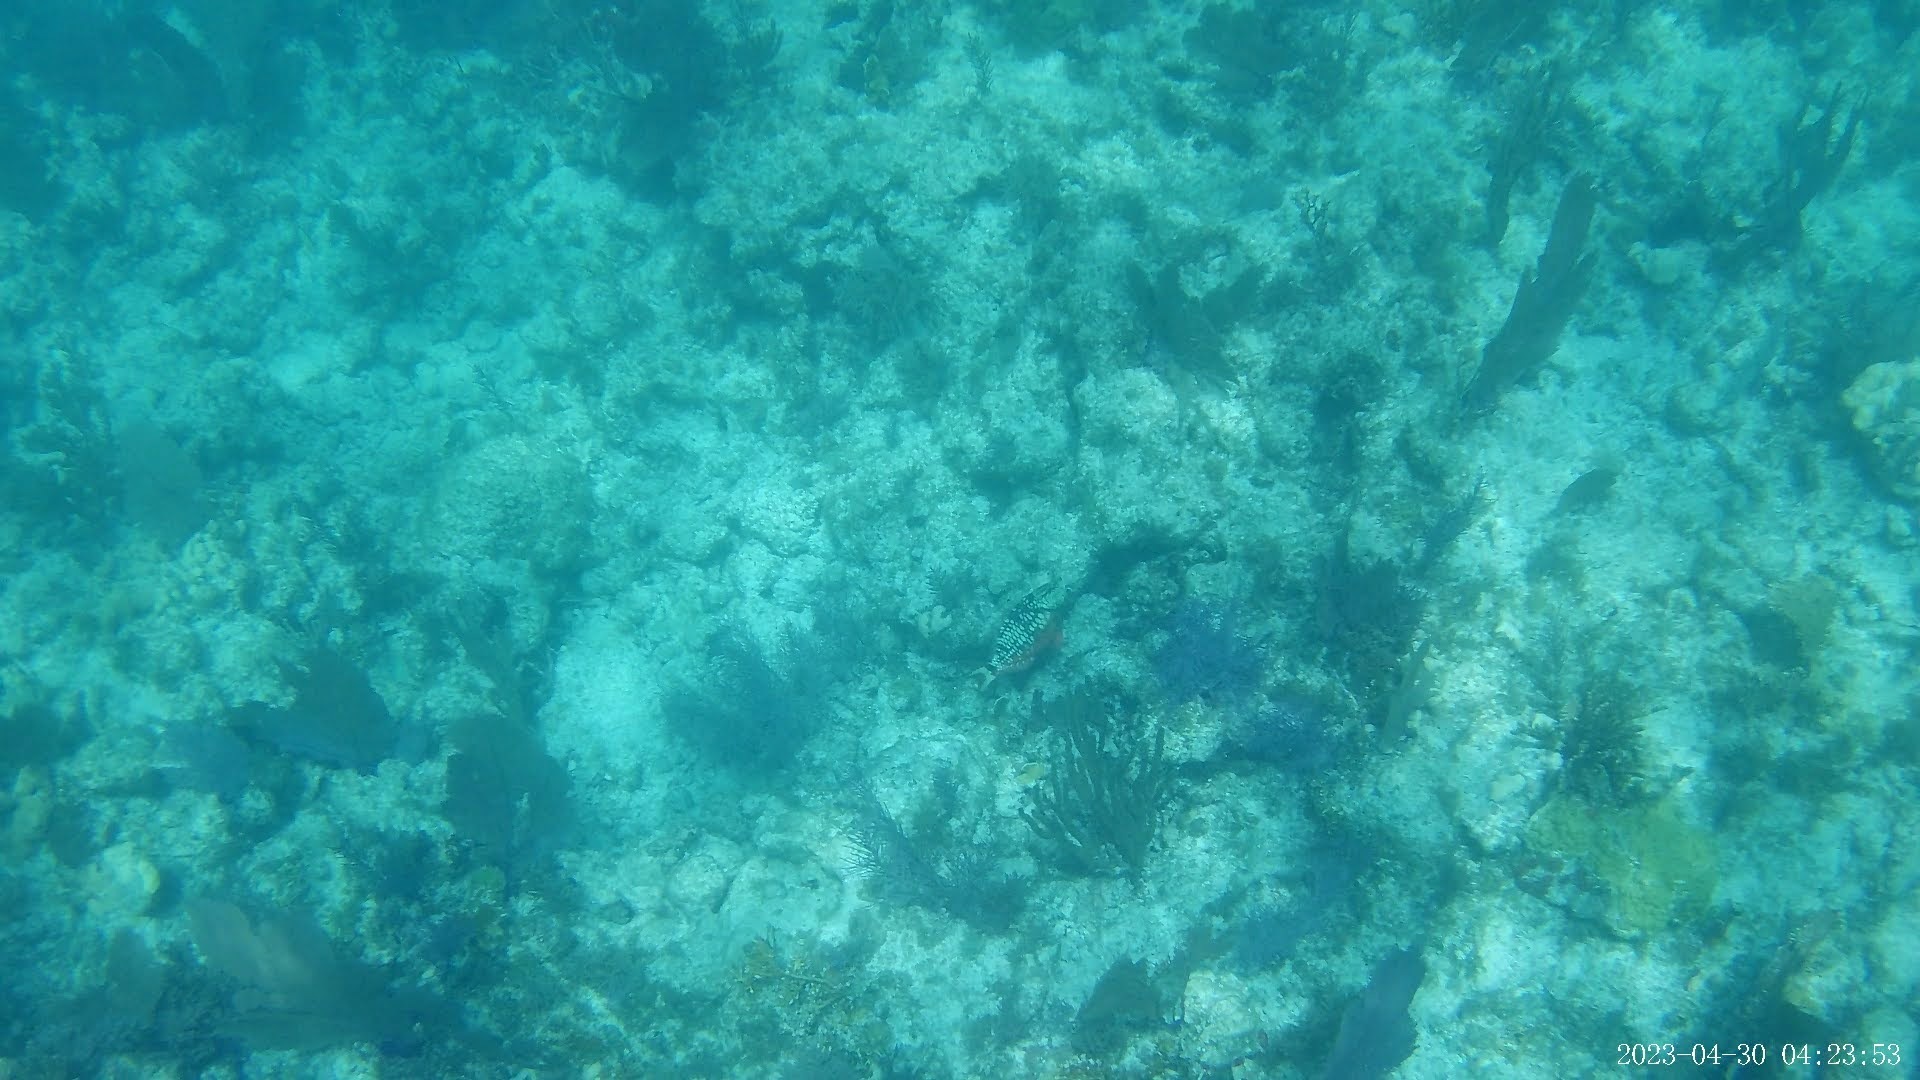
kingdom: Animalia
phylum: Chordata
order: Perciformes
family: Scaridae
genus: Sparisoma
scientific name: Sparisoma viride
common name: Stoplight parrotfish
